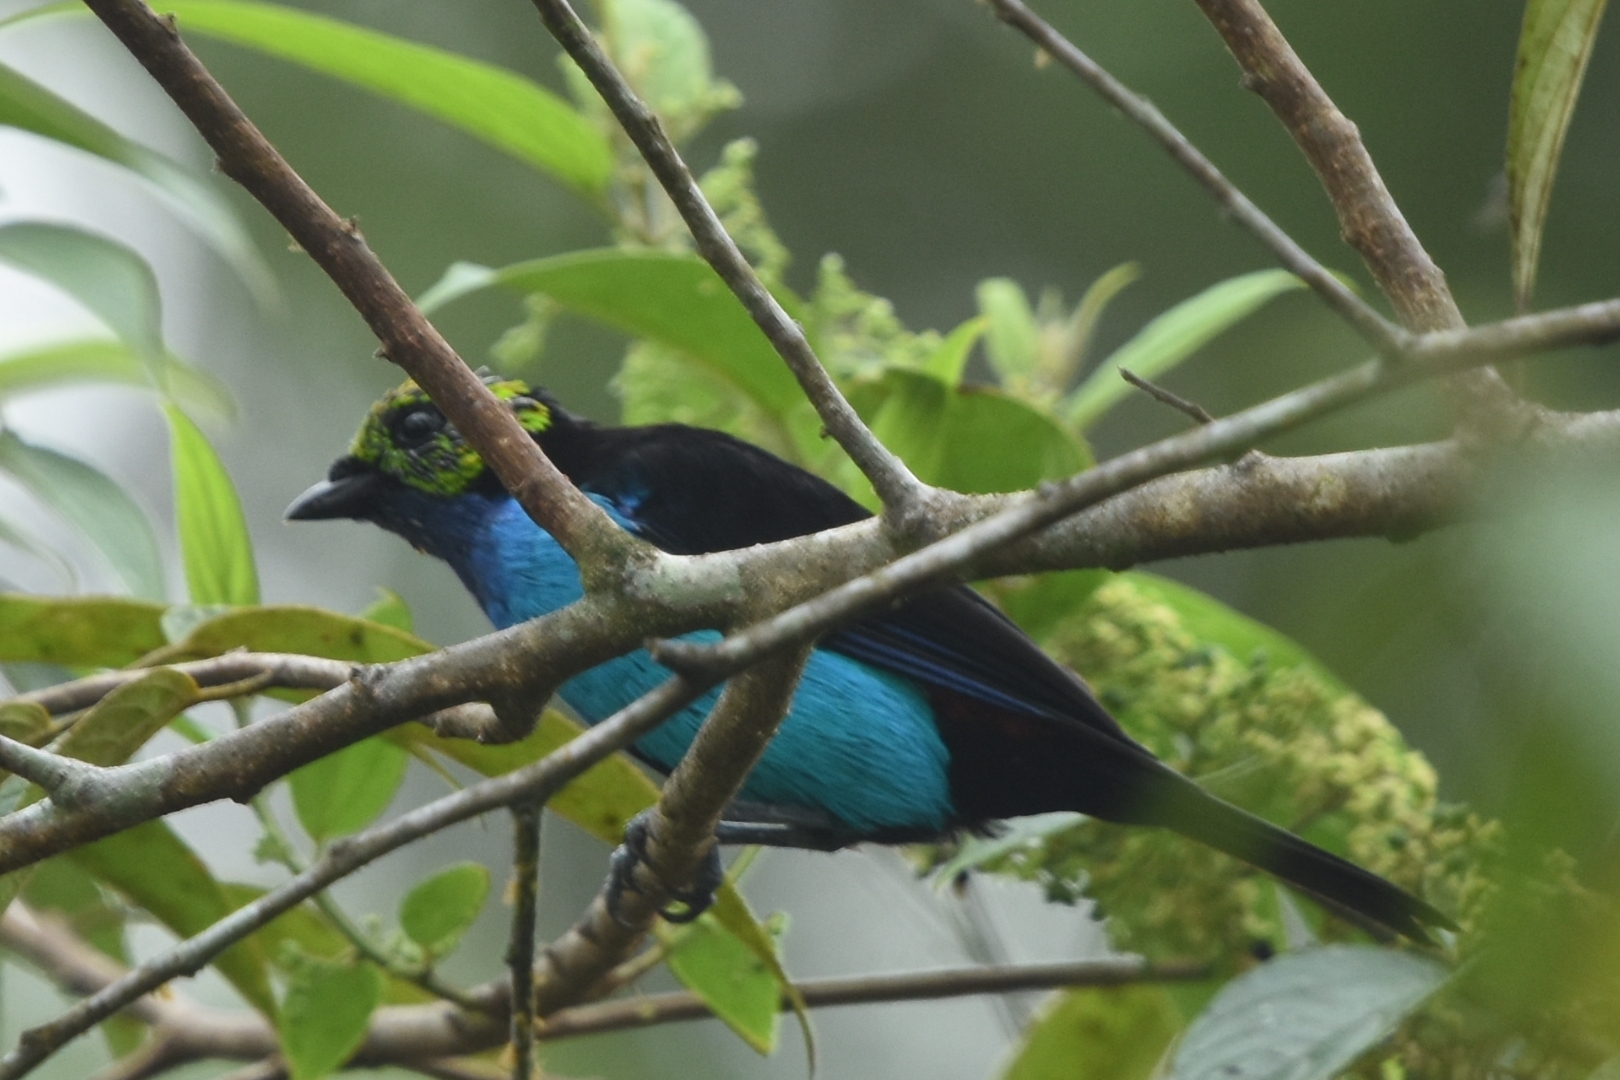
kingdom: Animalia
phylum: Chordata
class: Aves
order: Passeriformes
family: Thraupidae
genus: Tangara
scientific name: Tangara chilensis
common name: Paradise tanager
